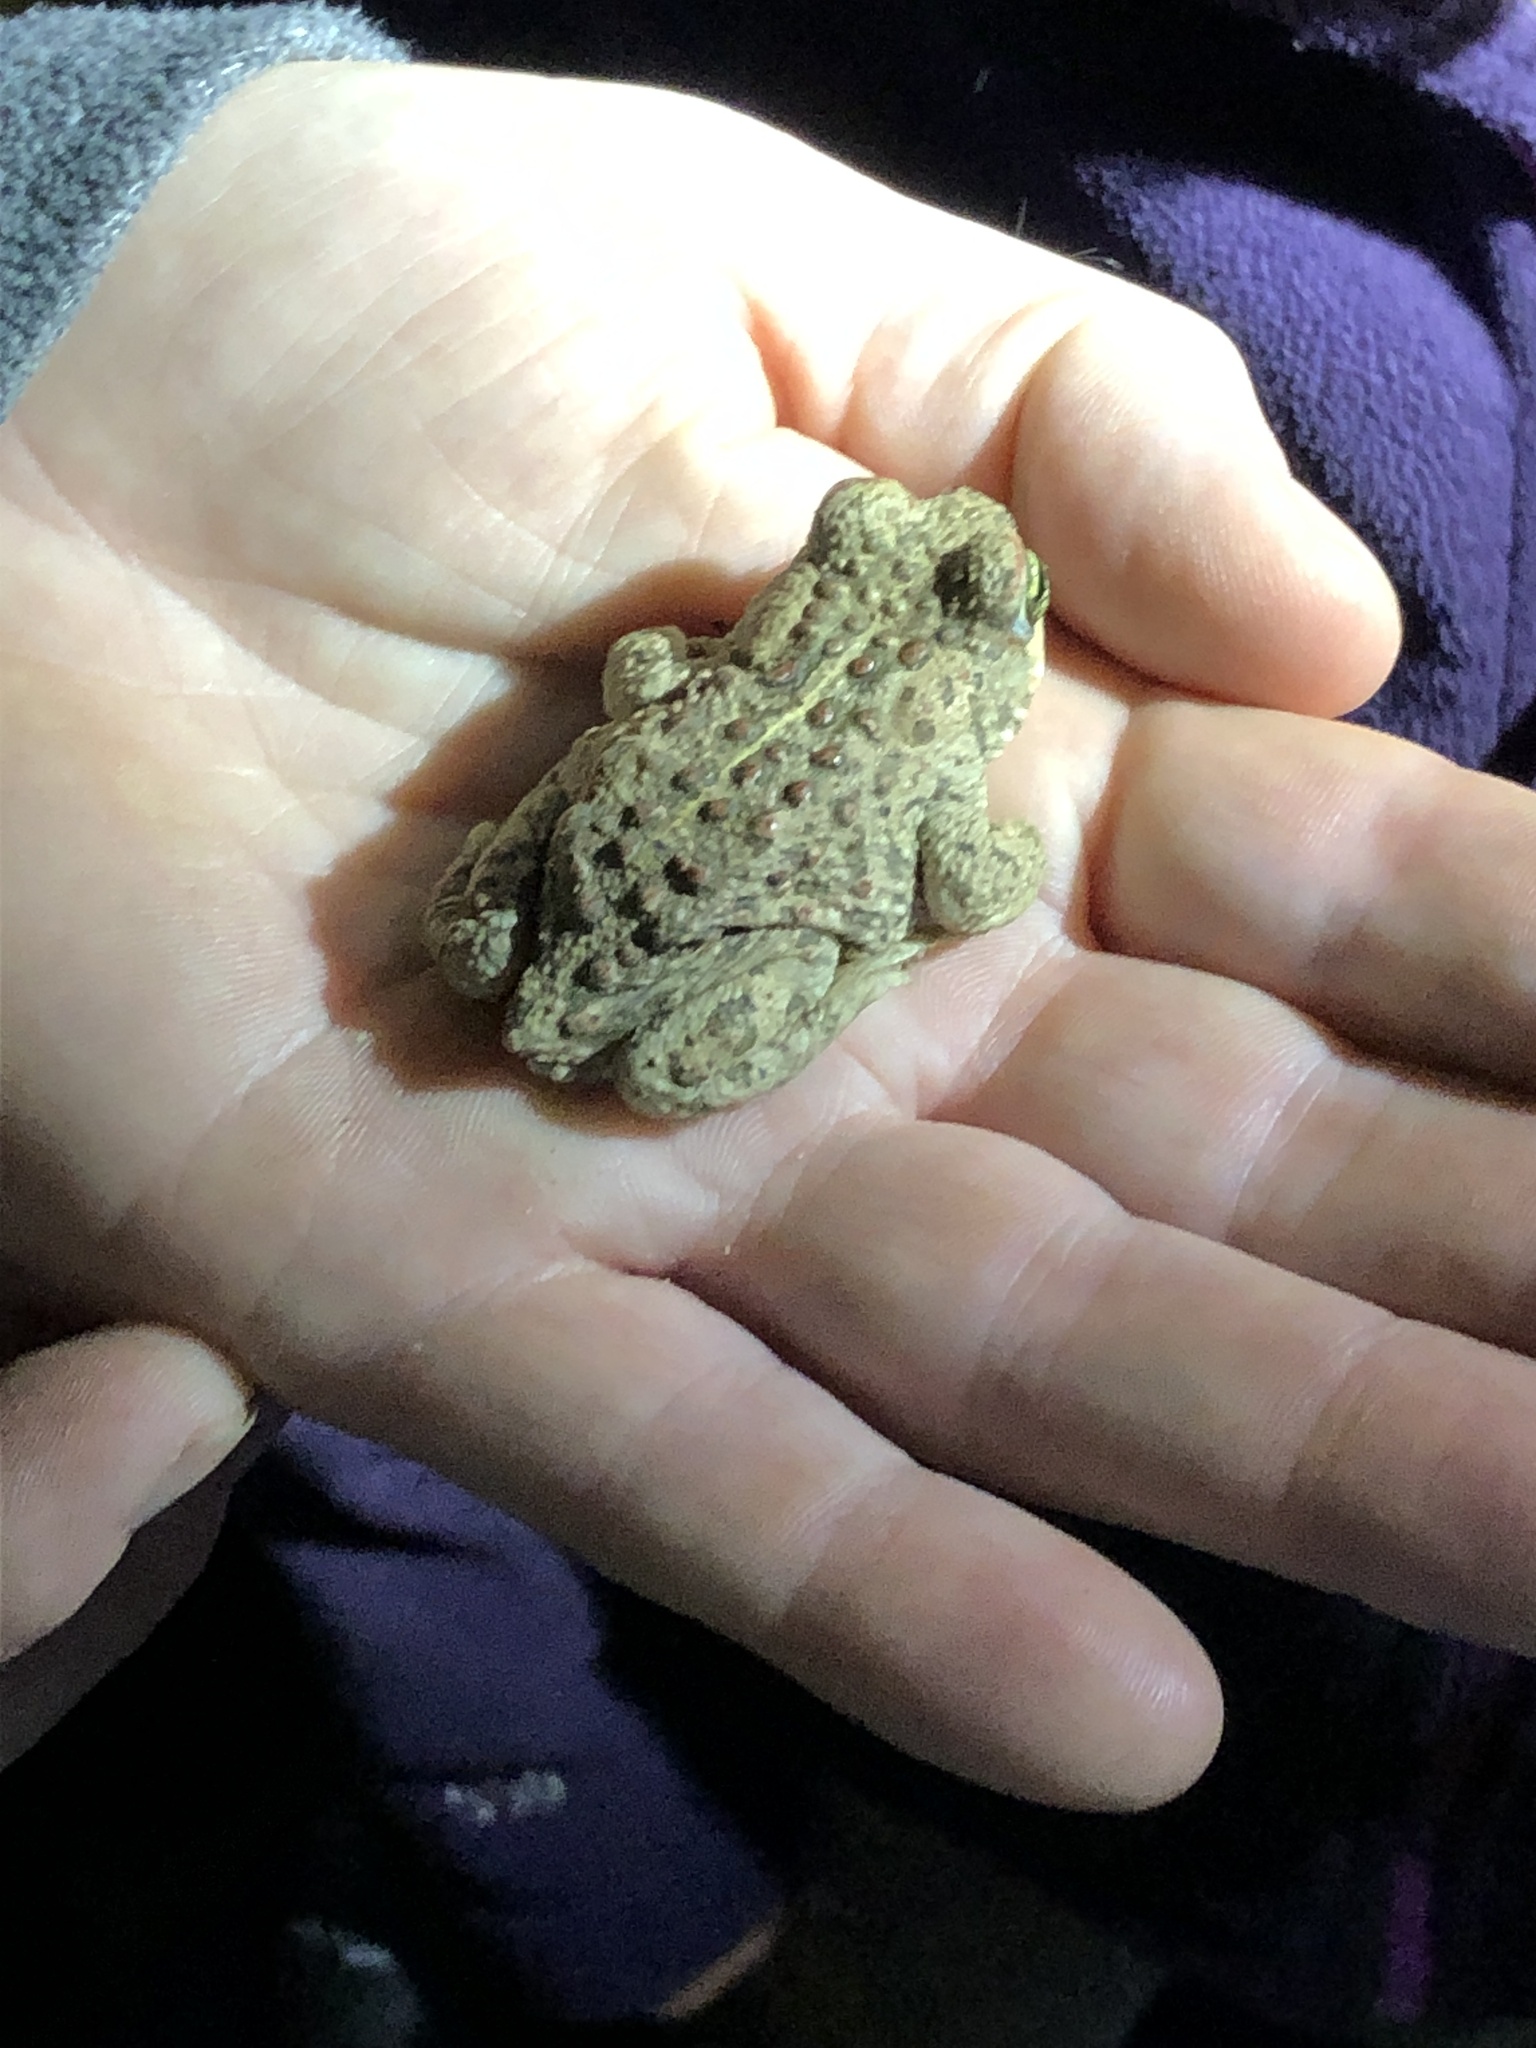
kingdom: Animalia
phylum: Chordata
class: Amphibia
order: Anura
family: Bufonidae
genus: Epidalea
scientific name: Epidalea calamita
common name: Natterjack toad
